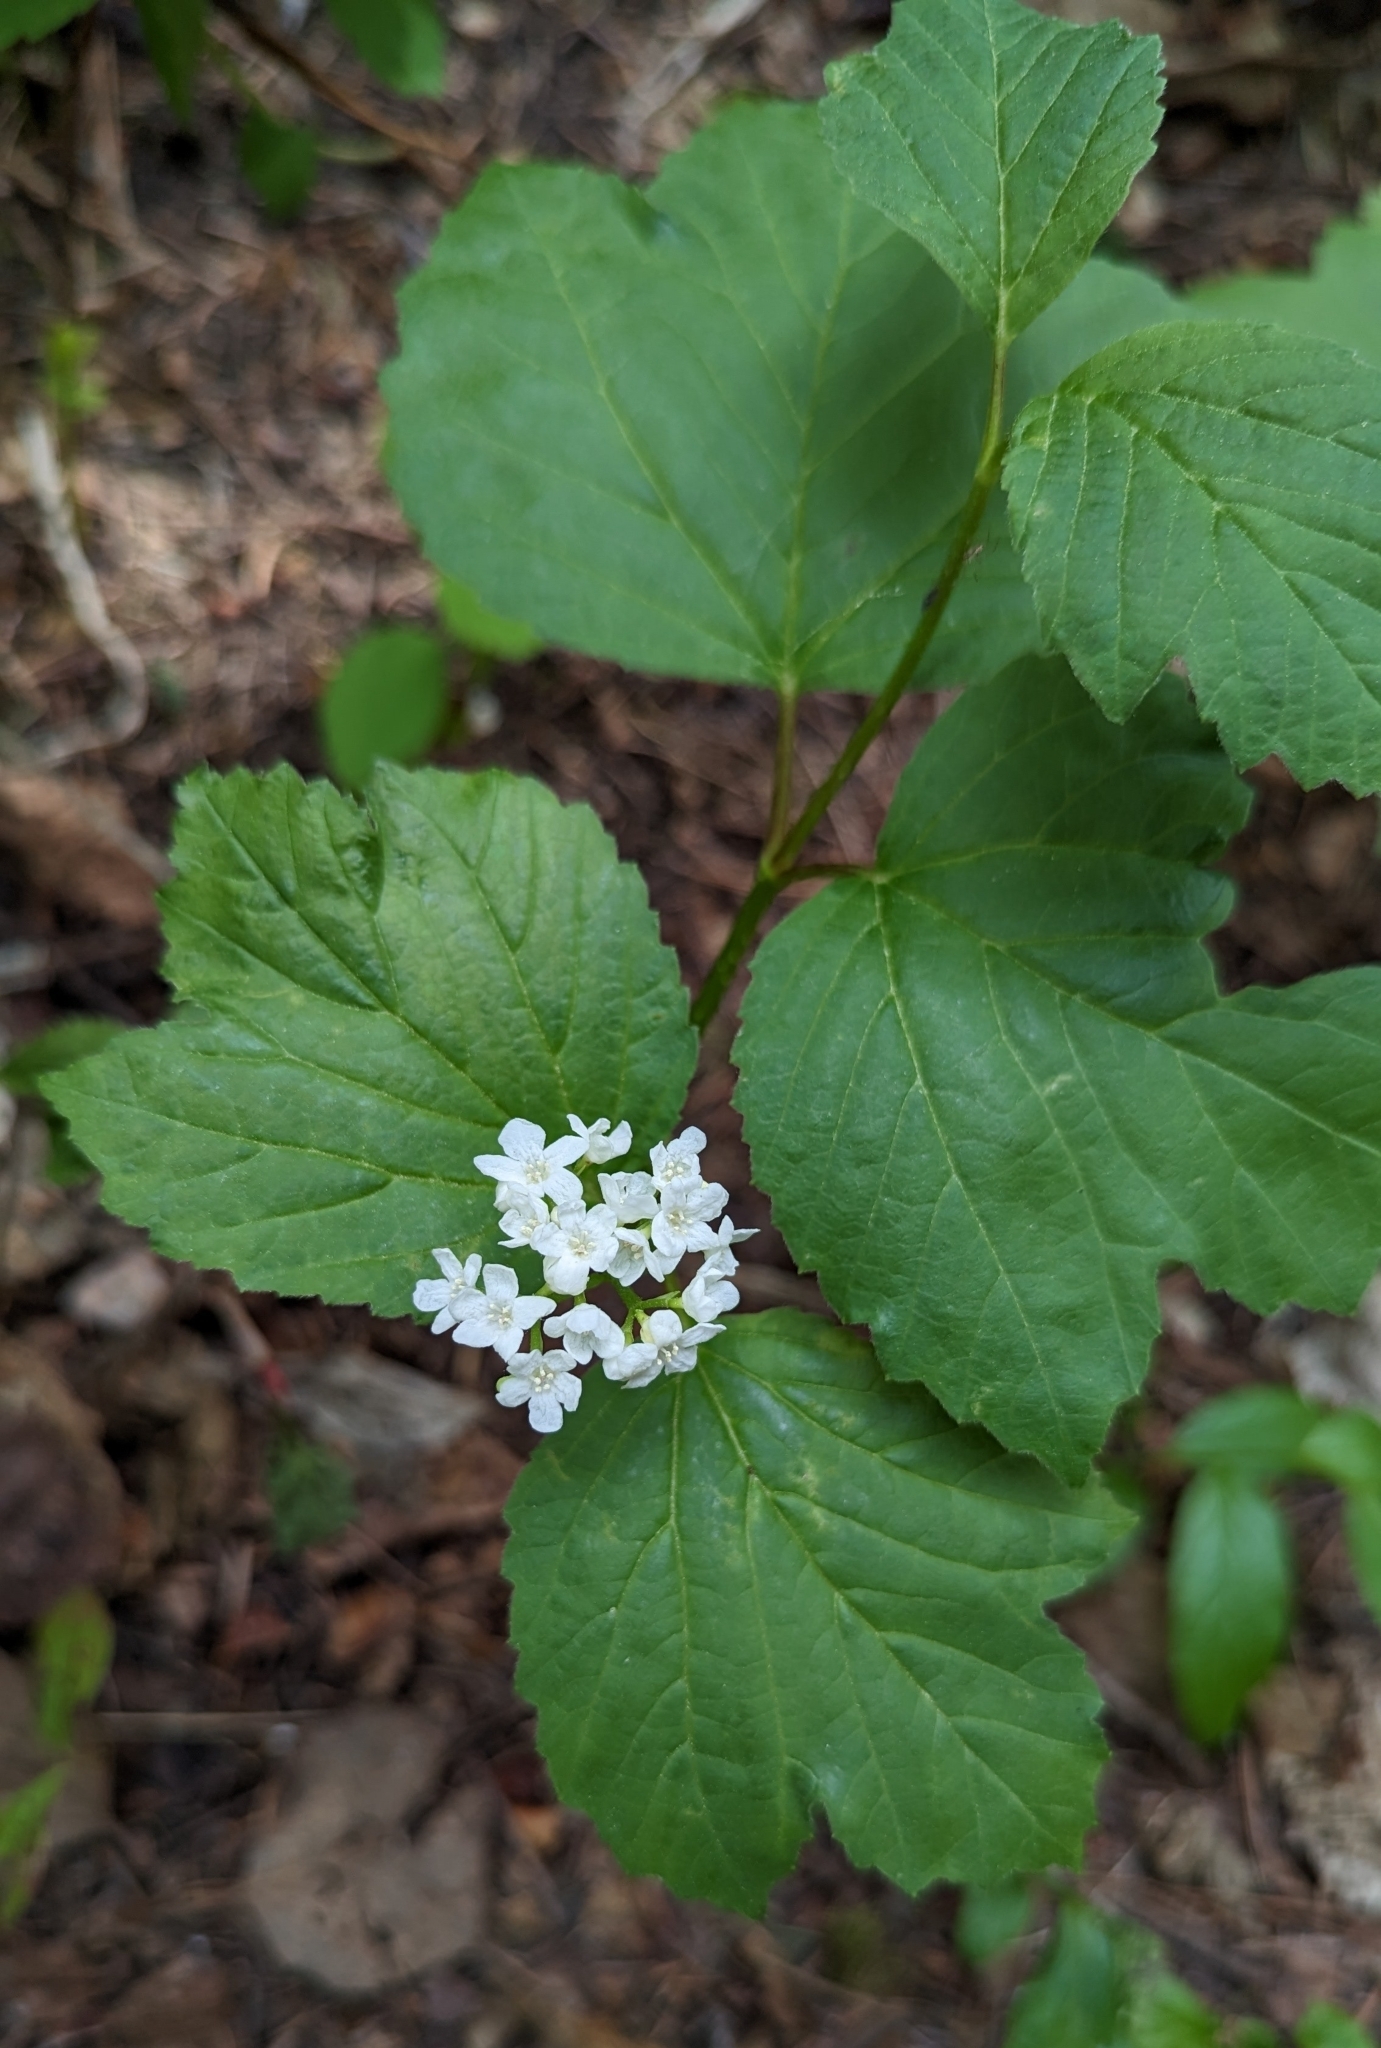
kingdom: Plantae
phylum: Tracheophyta
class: Magnoliopsida
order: Dipsacales
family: Viburnaceae
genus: Viburnum
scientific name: Viburnum edule
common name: Mooseberry
